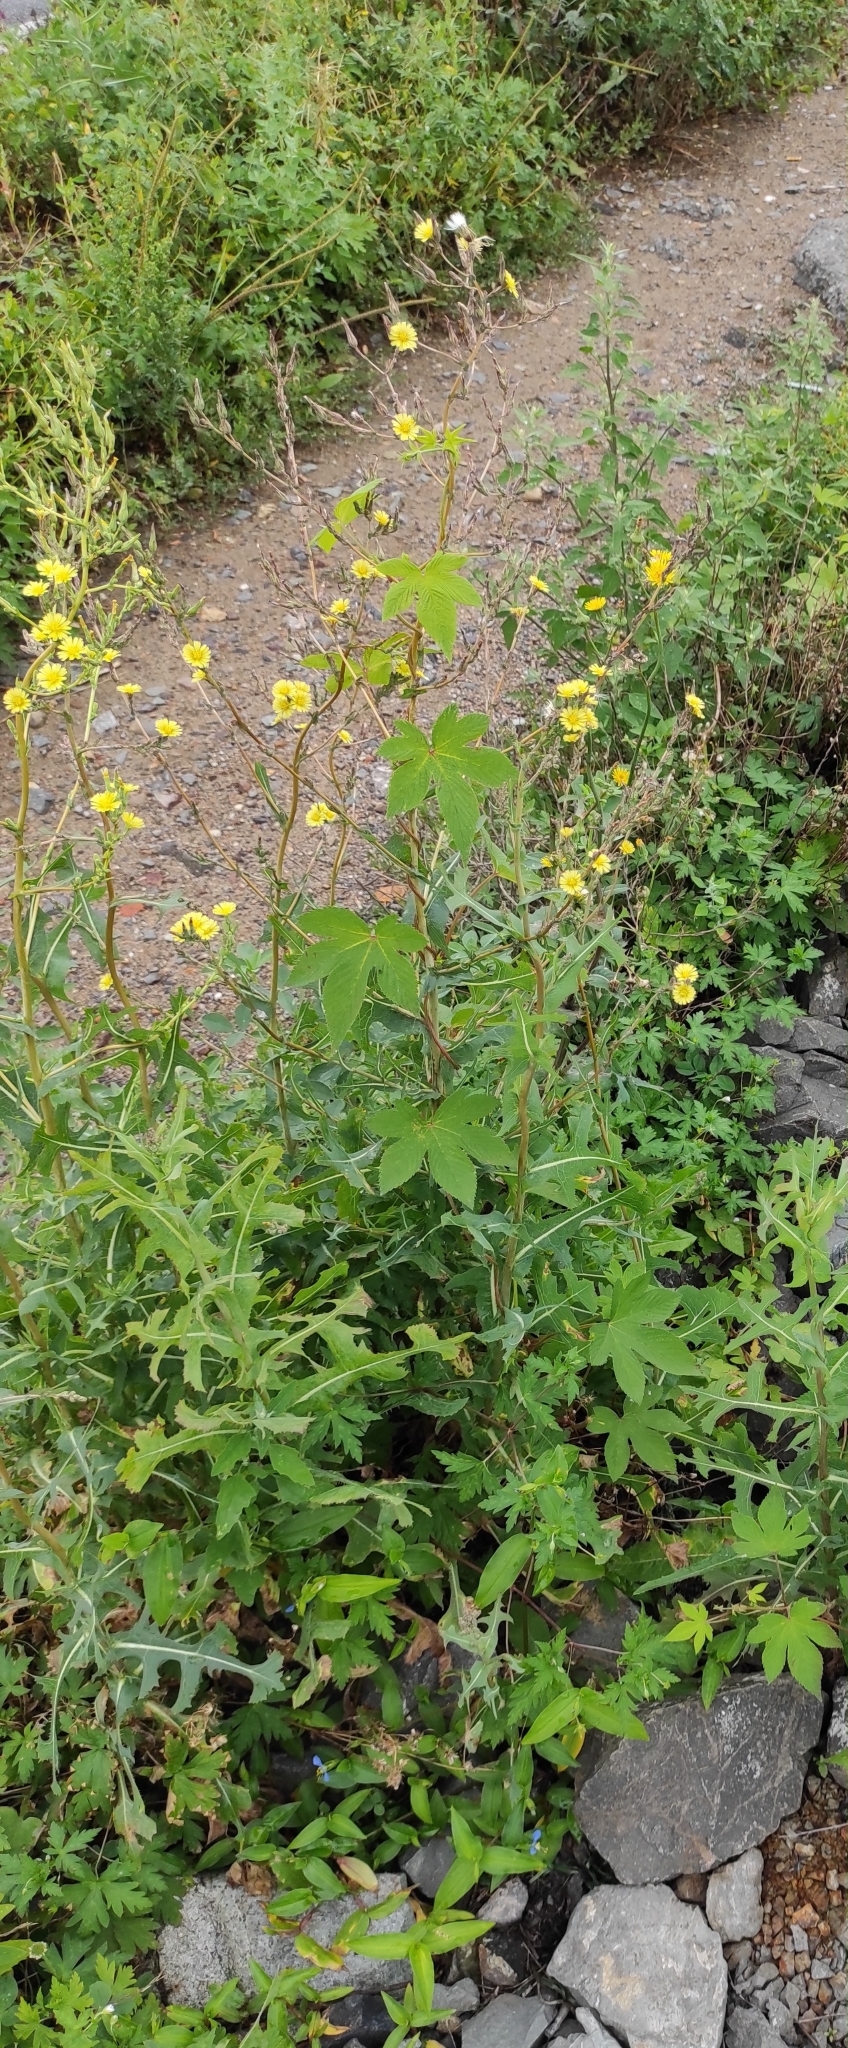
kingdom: Plantae
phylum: Tracheophyta
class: Magnoliopsida
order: Asterales
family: Asteraceae
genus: Lactuca
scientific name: Lactuca serriola
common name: Prickly lettuce
